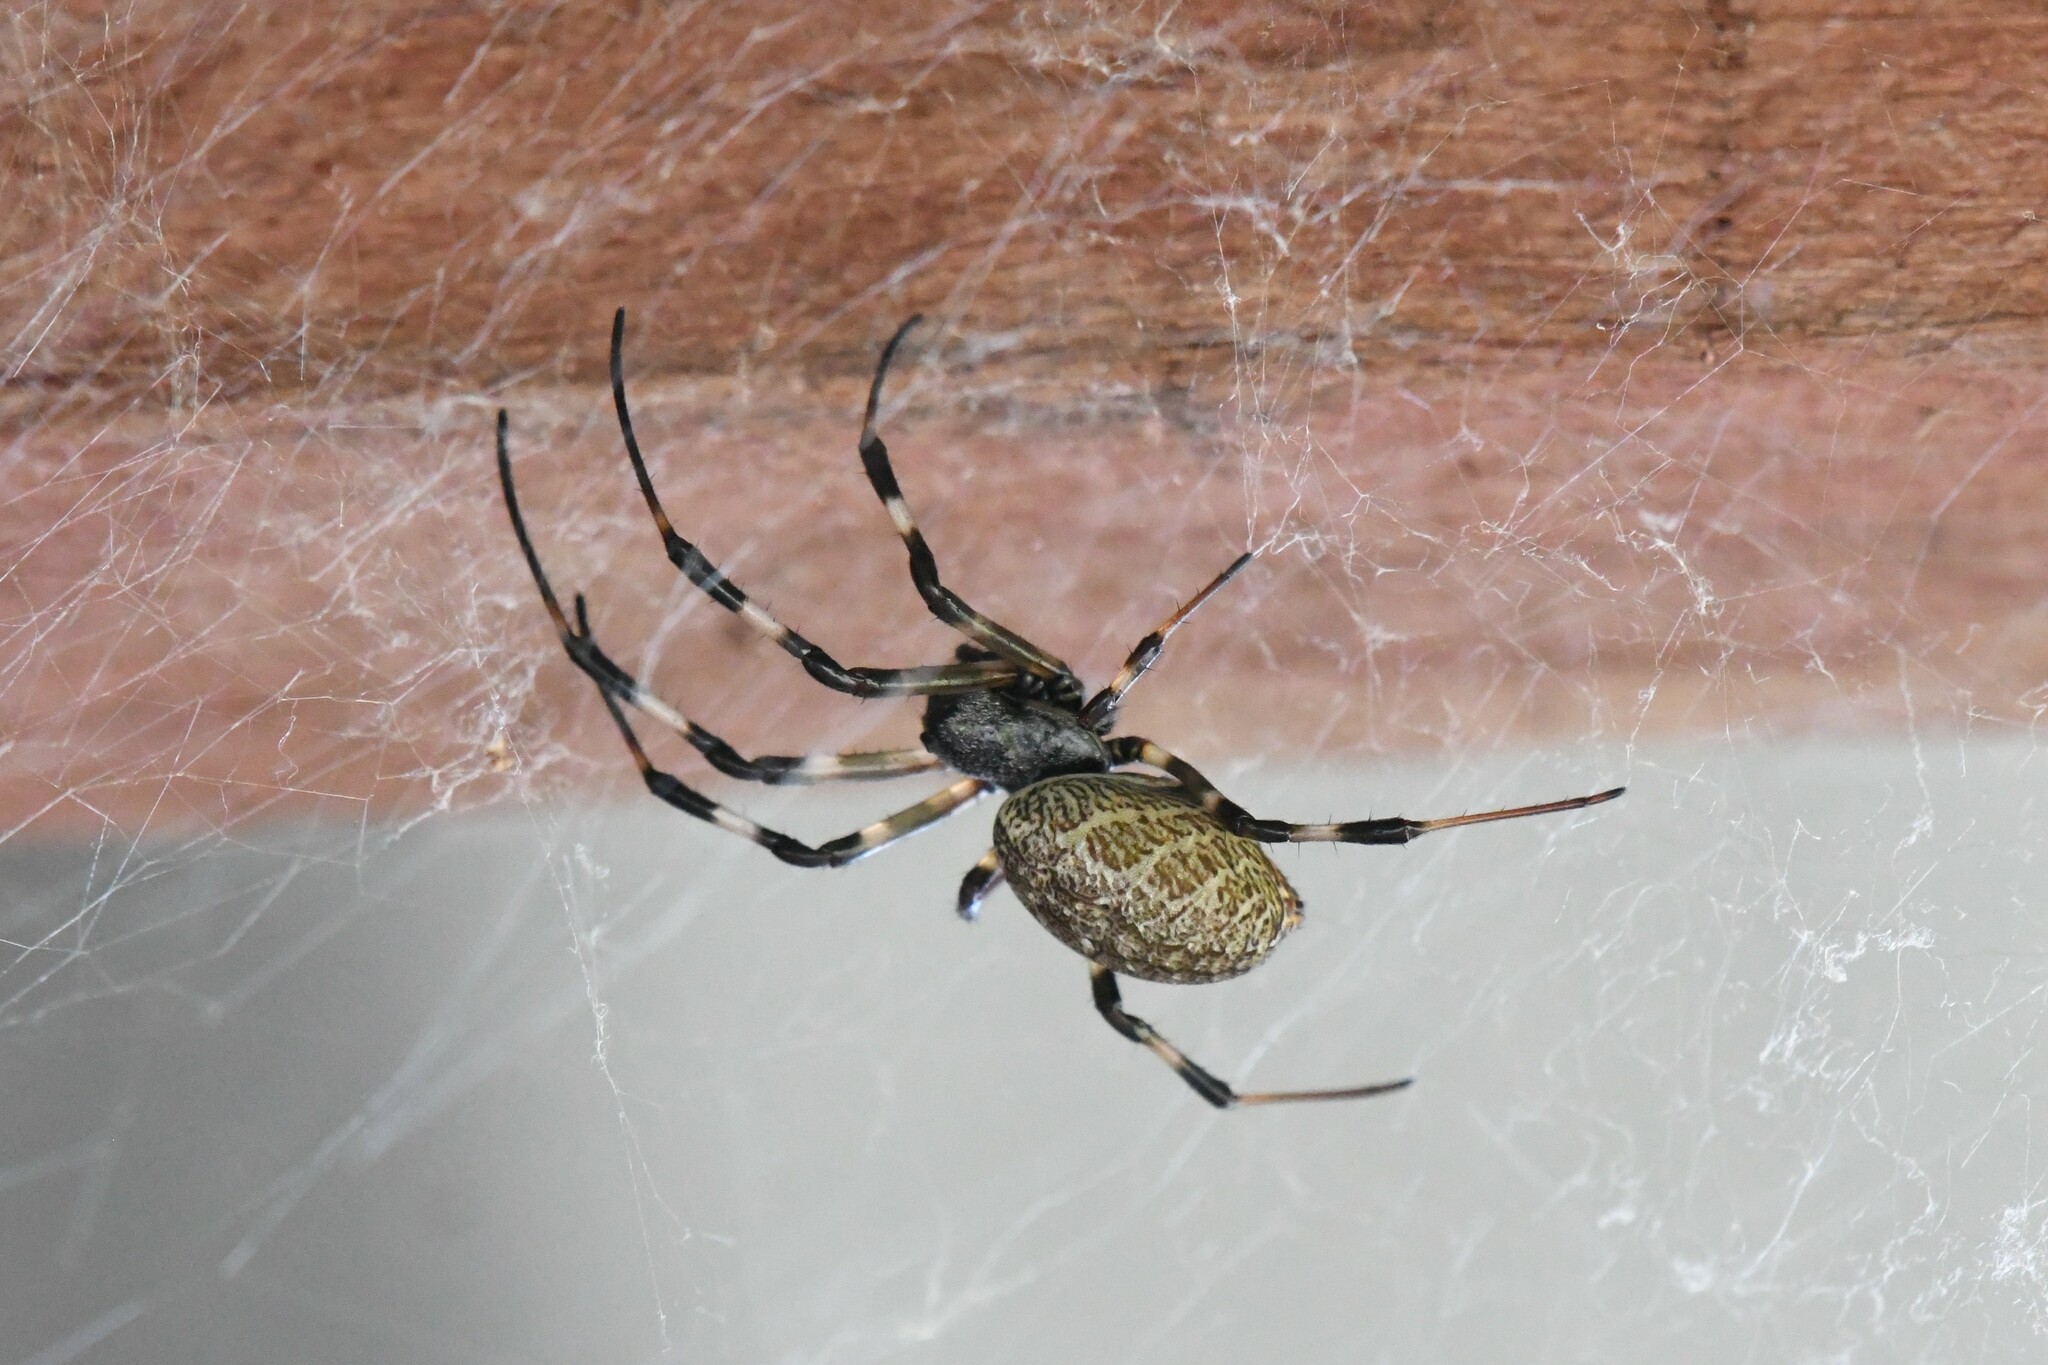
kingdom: Animalia
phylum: Arthropoda
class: Arachnida
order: Araneae
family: Araneidae
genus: Nephilengys
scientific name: Nephilengys malabarensis
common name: Asian hermit spider
